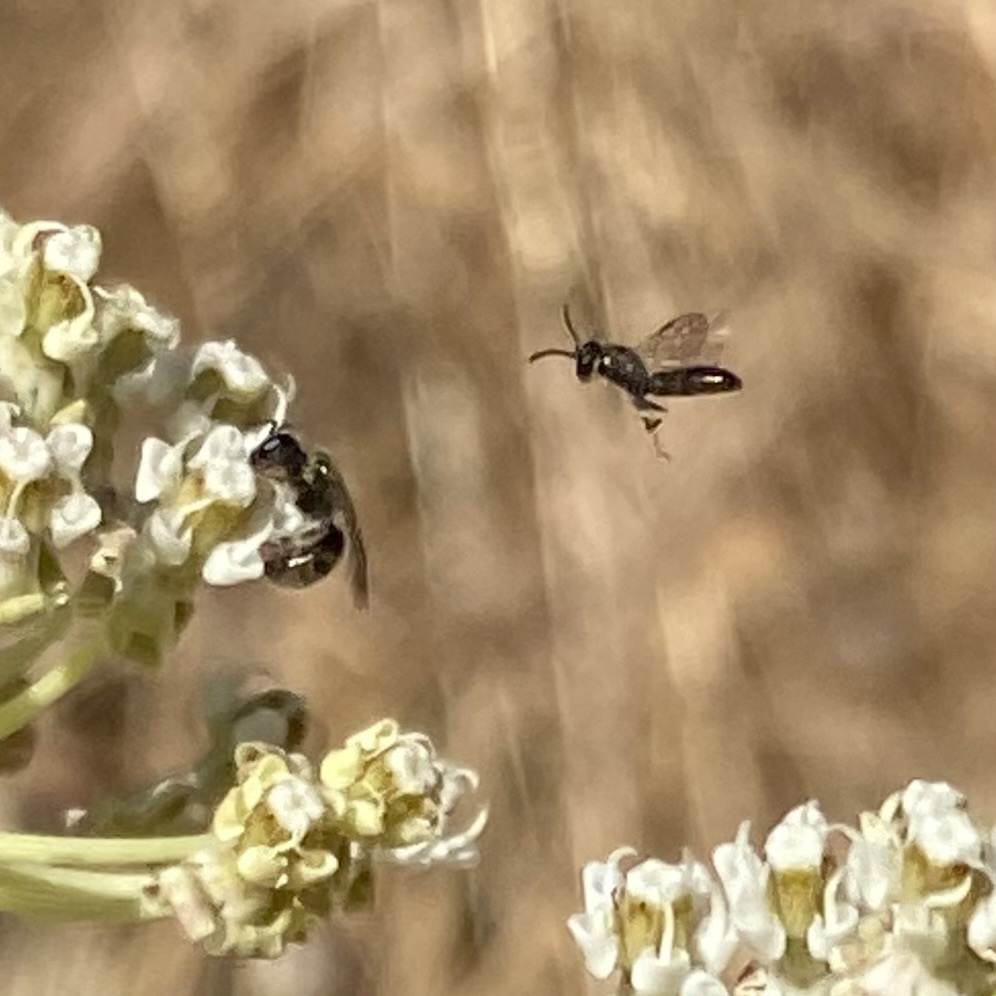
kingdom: Animalia
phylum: Arthropoda
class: Insecta
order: Hymenoptera
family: Halictidae
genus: Dialictus
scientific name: Dialictus
